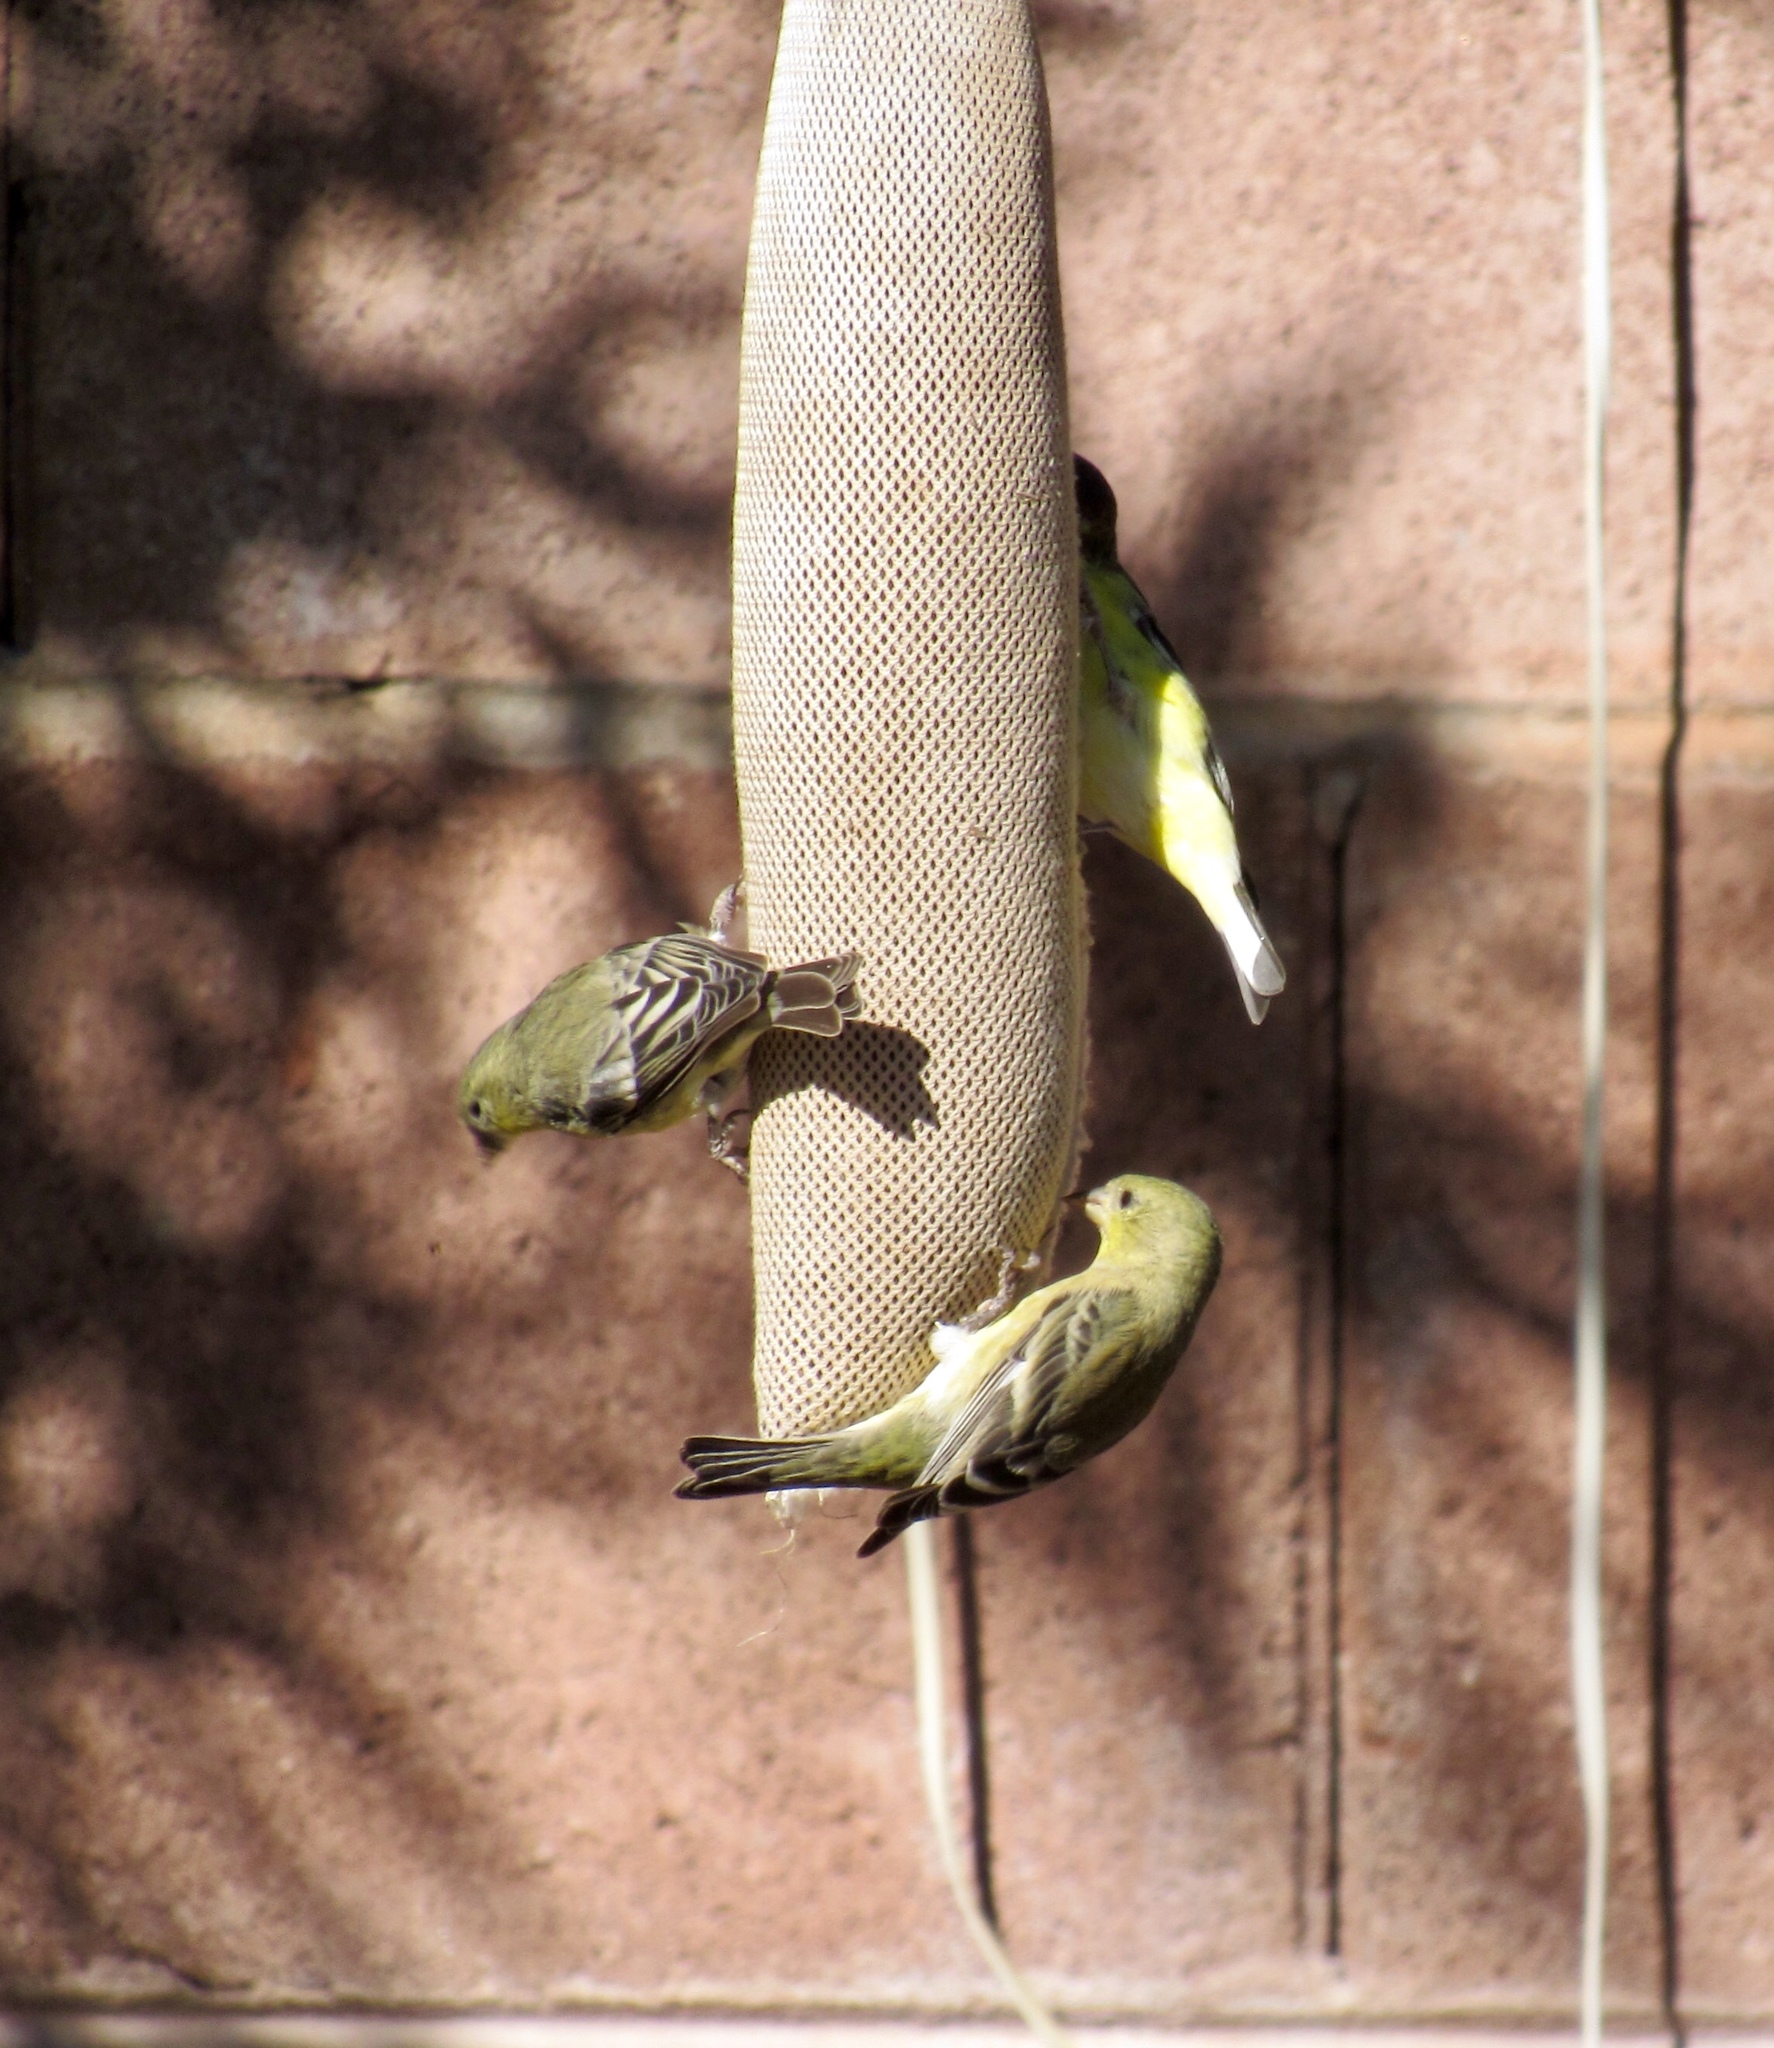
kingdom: Animalia
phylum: Chordata
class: Aves
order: Passeriformes
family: Fringillidae
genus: Spinus
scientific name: Spinus psaltria
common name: Lesser goldfinch
